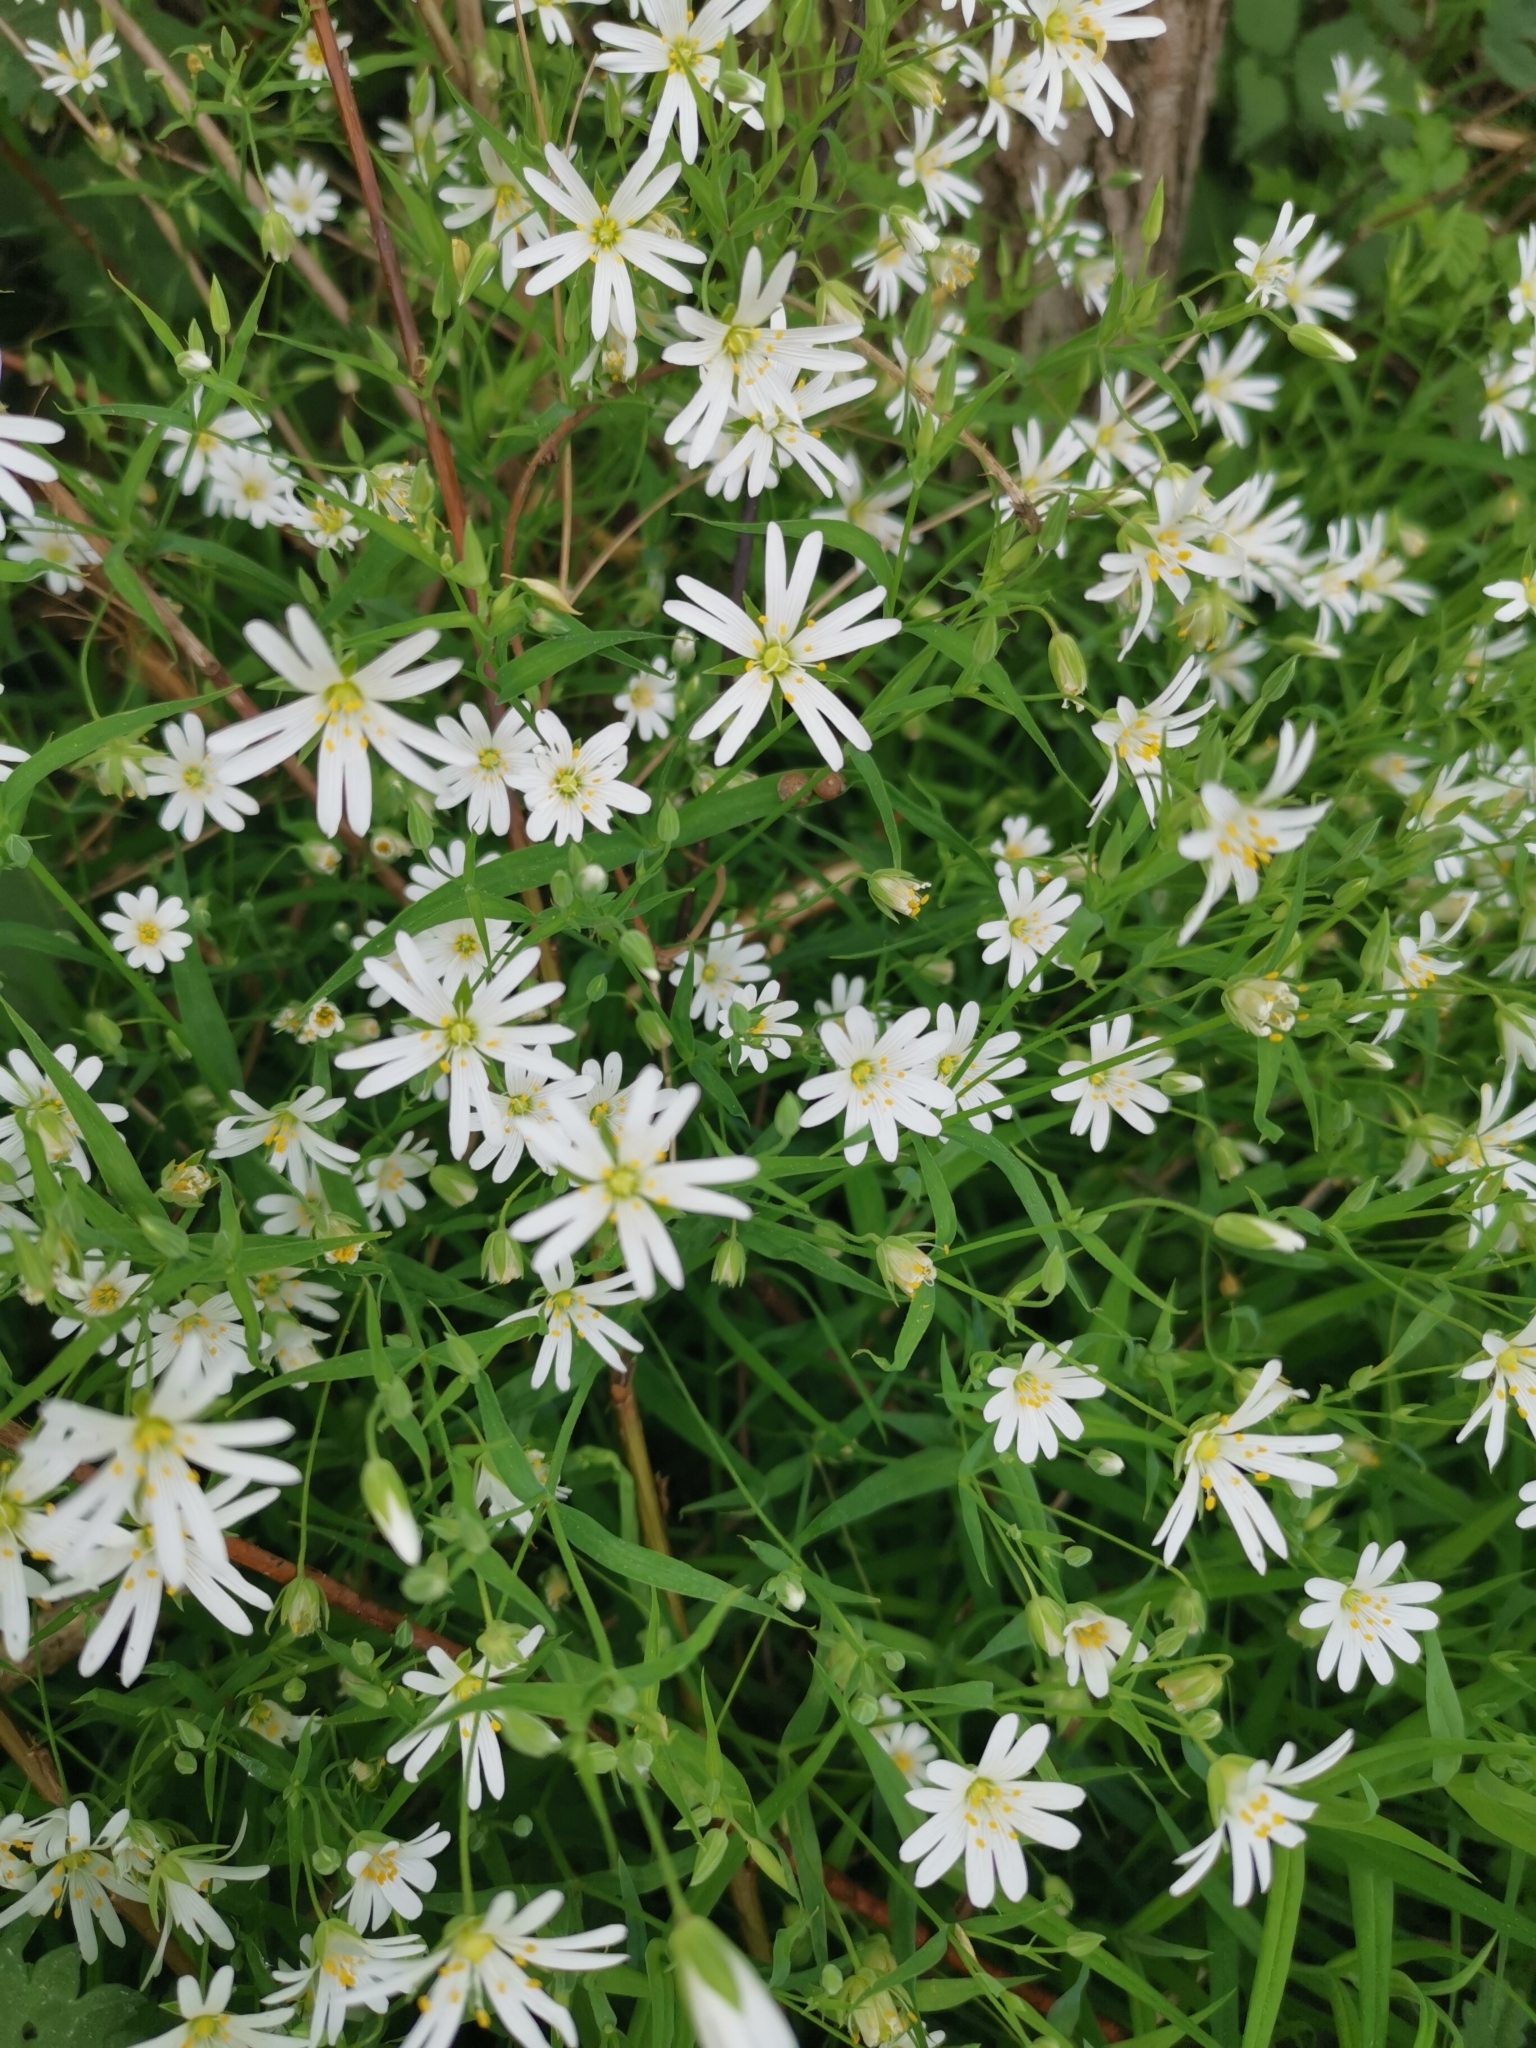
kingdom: Plantae
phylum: Tracheophyta
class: Magnoliopsida
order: Caryophyllales
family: Caryophyllaceae
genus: Rabelera
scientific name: Rabelera holostea
